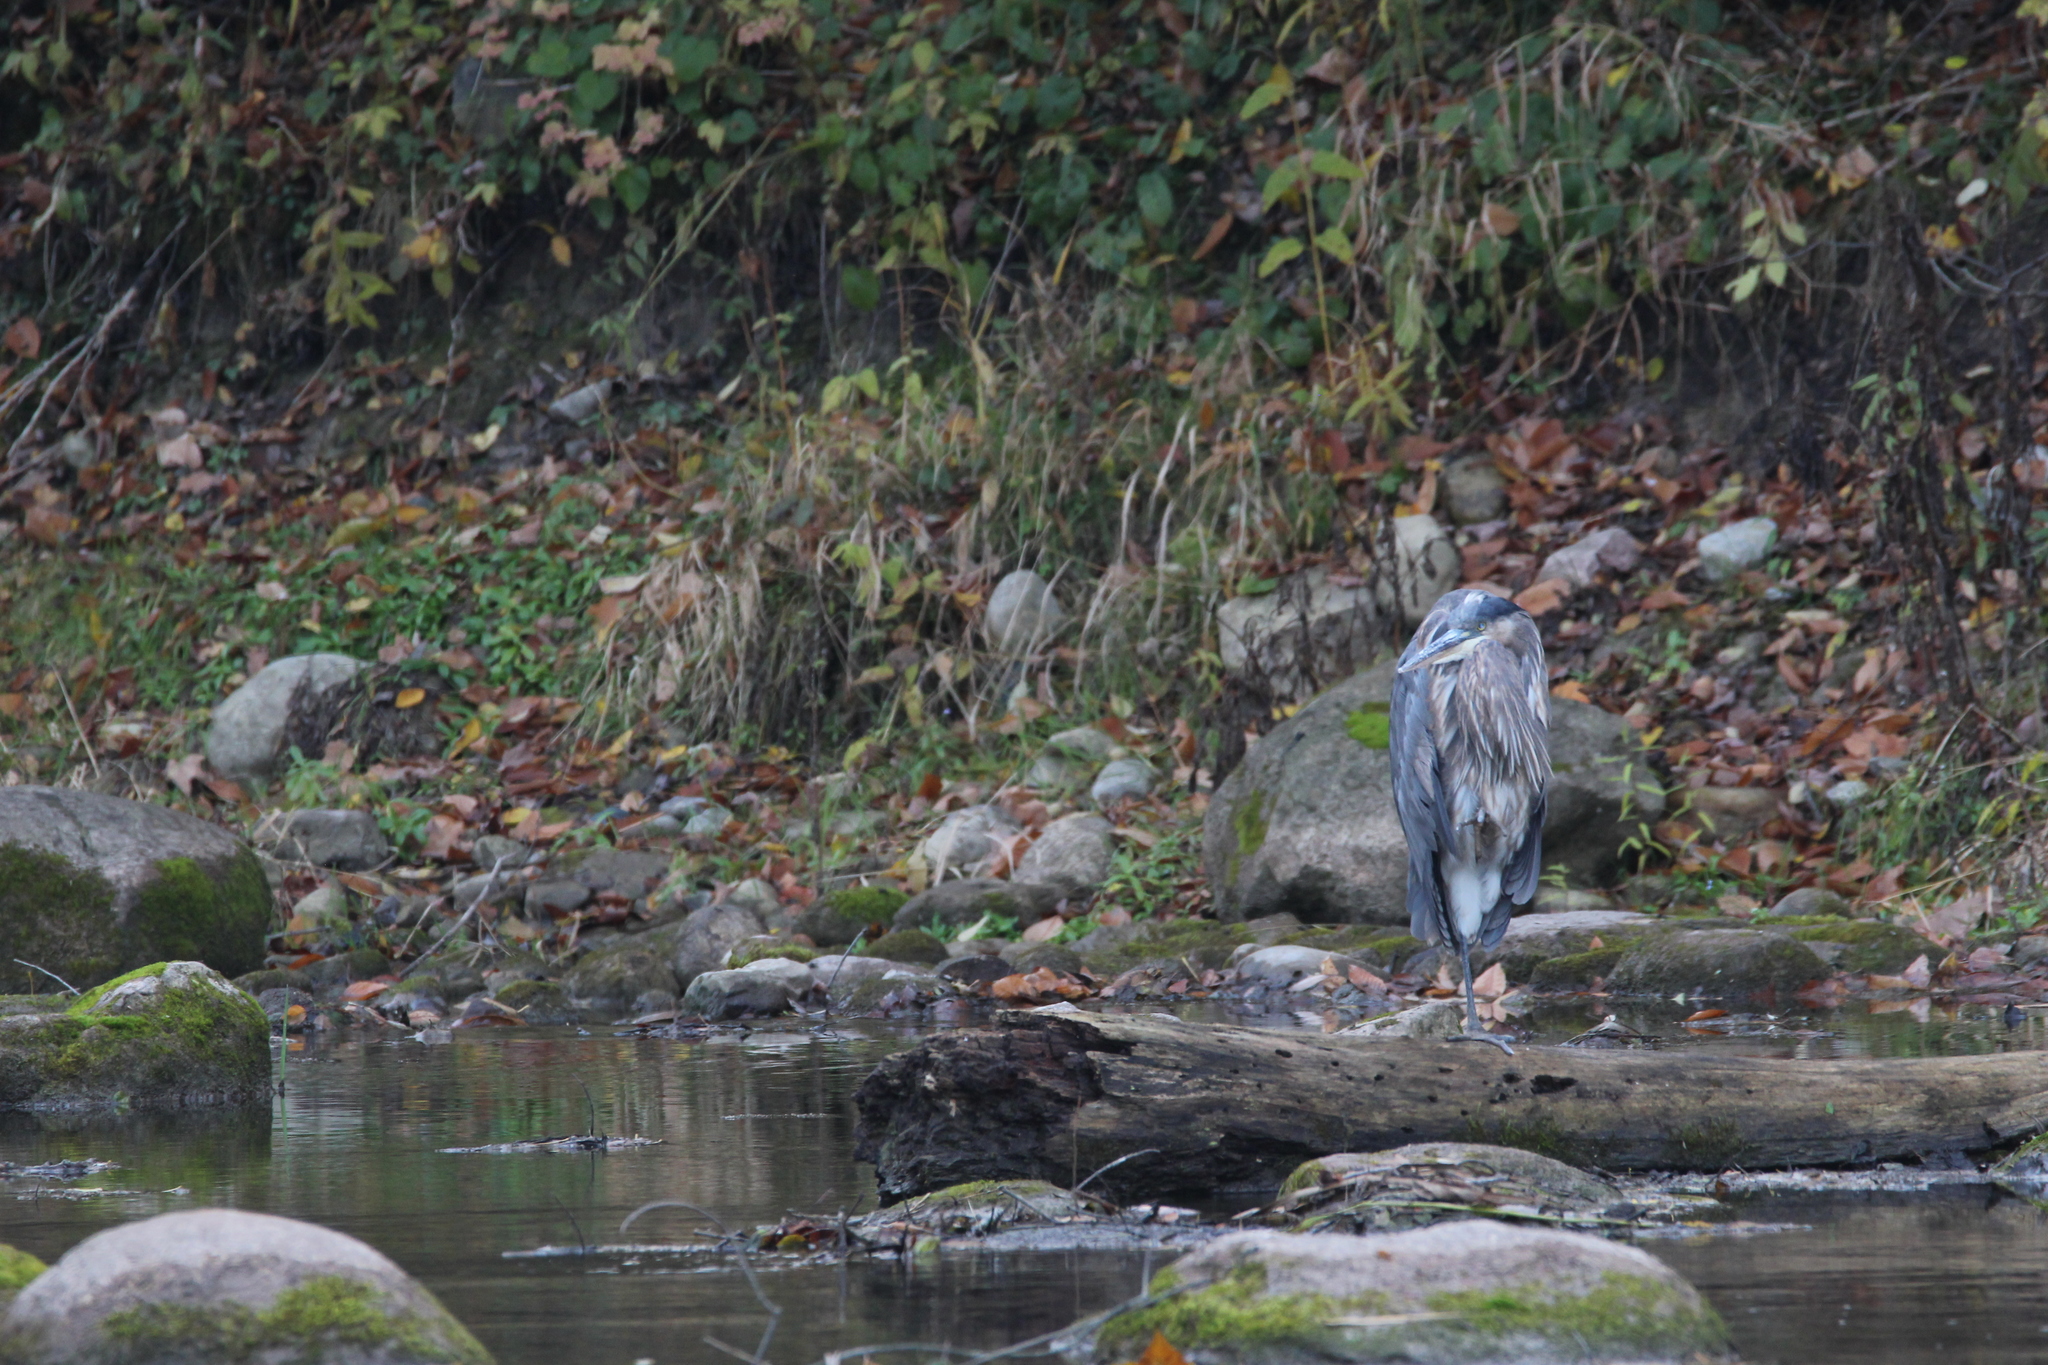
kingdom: Animalia
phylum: Chordata
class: Aves
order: Pelecaniformes
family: Ardeidae
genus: Ardea
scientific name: Ardea herodias
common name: Great blue heron
